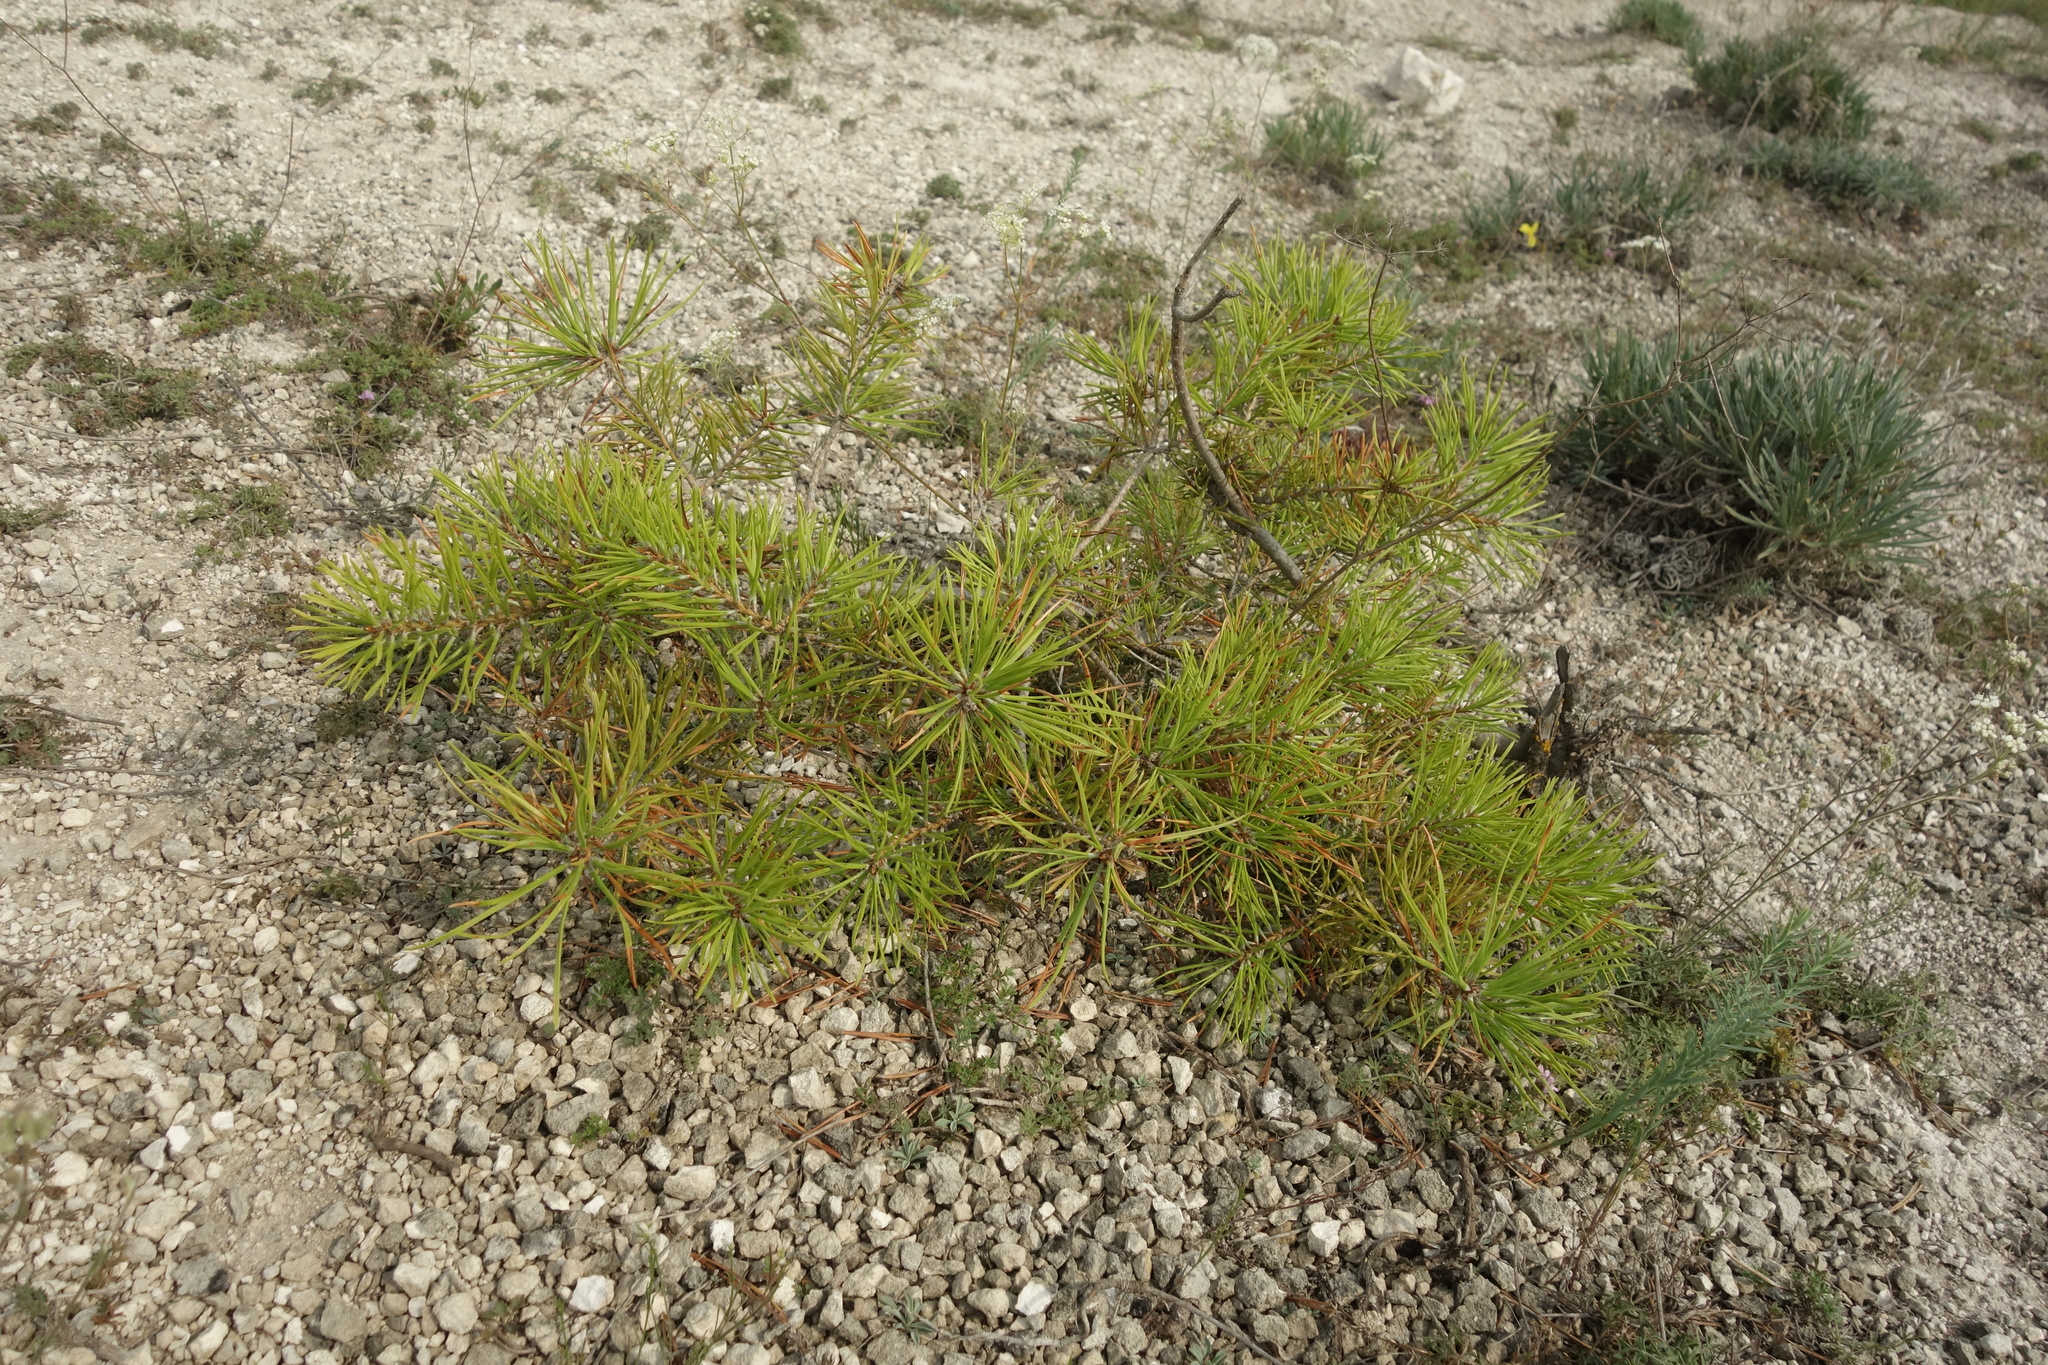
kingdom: Plantae
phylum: Tracheophyta
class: Pinopsida
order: Pinales
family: Pinaceae
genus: Pinus
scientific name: Pinus sylvestris
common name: Scots pine
